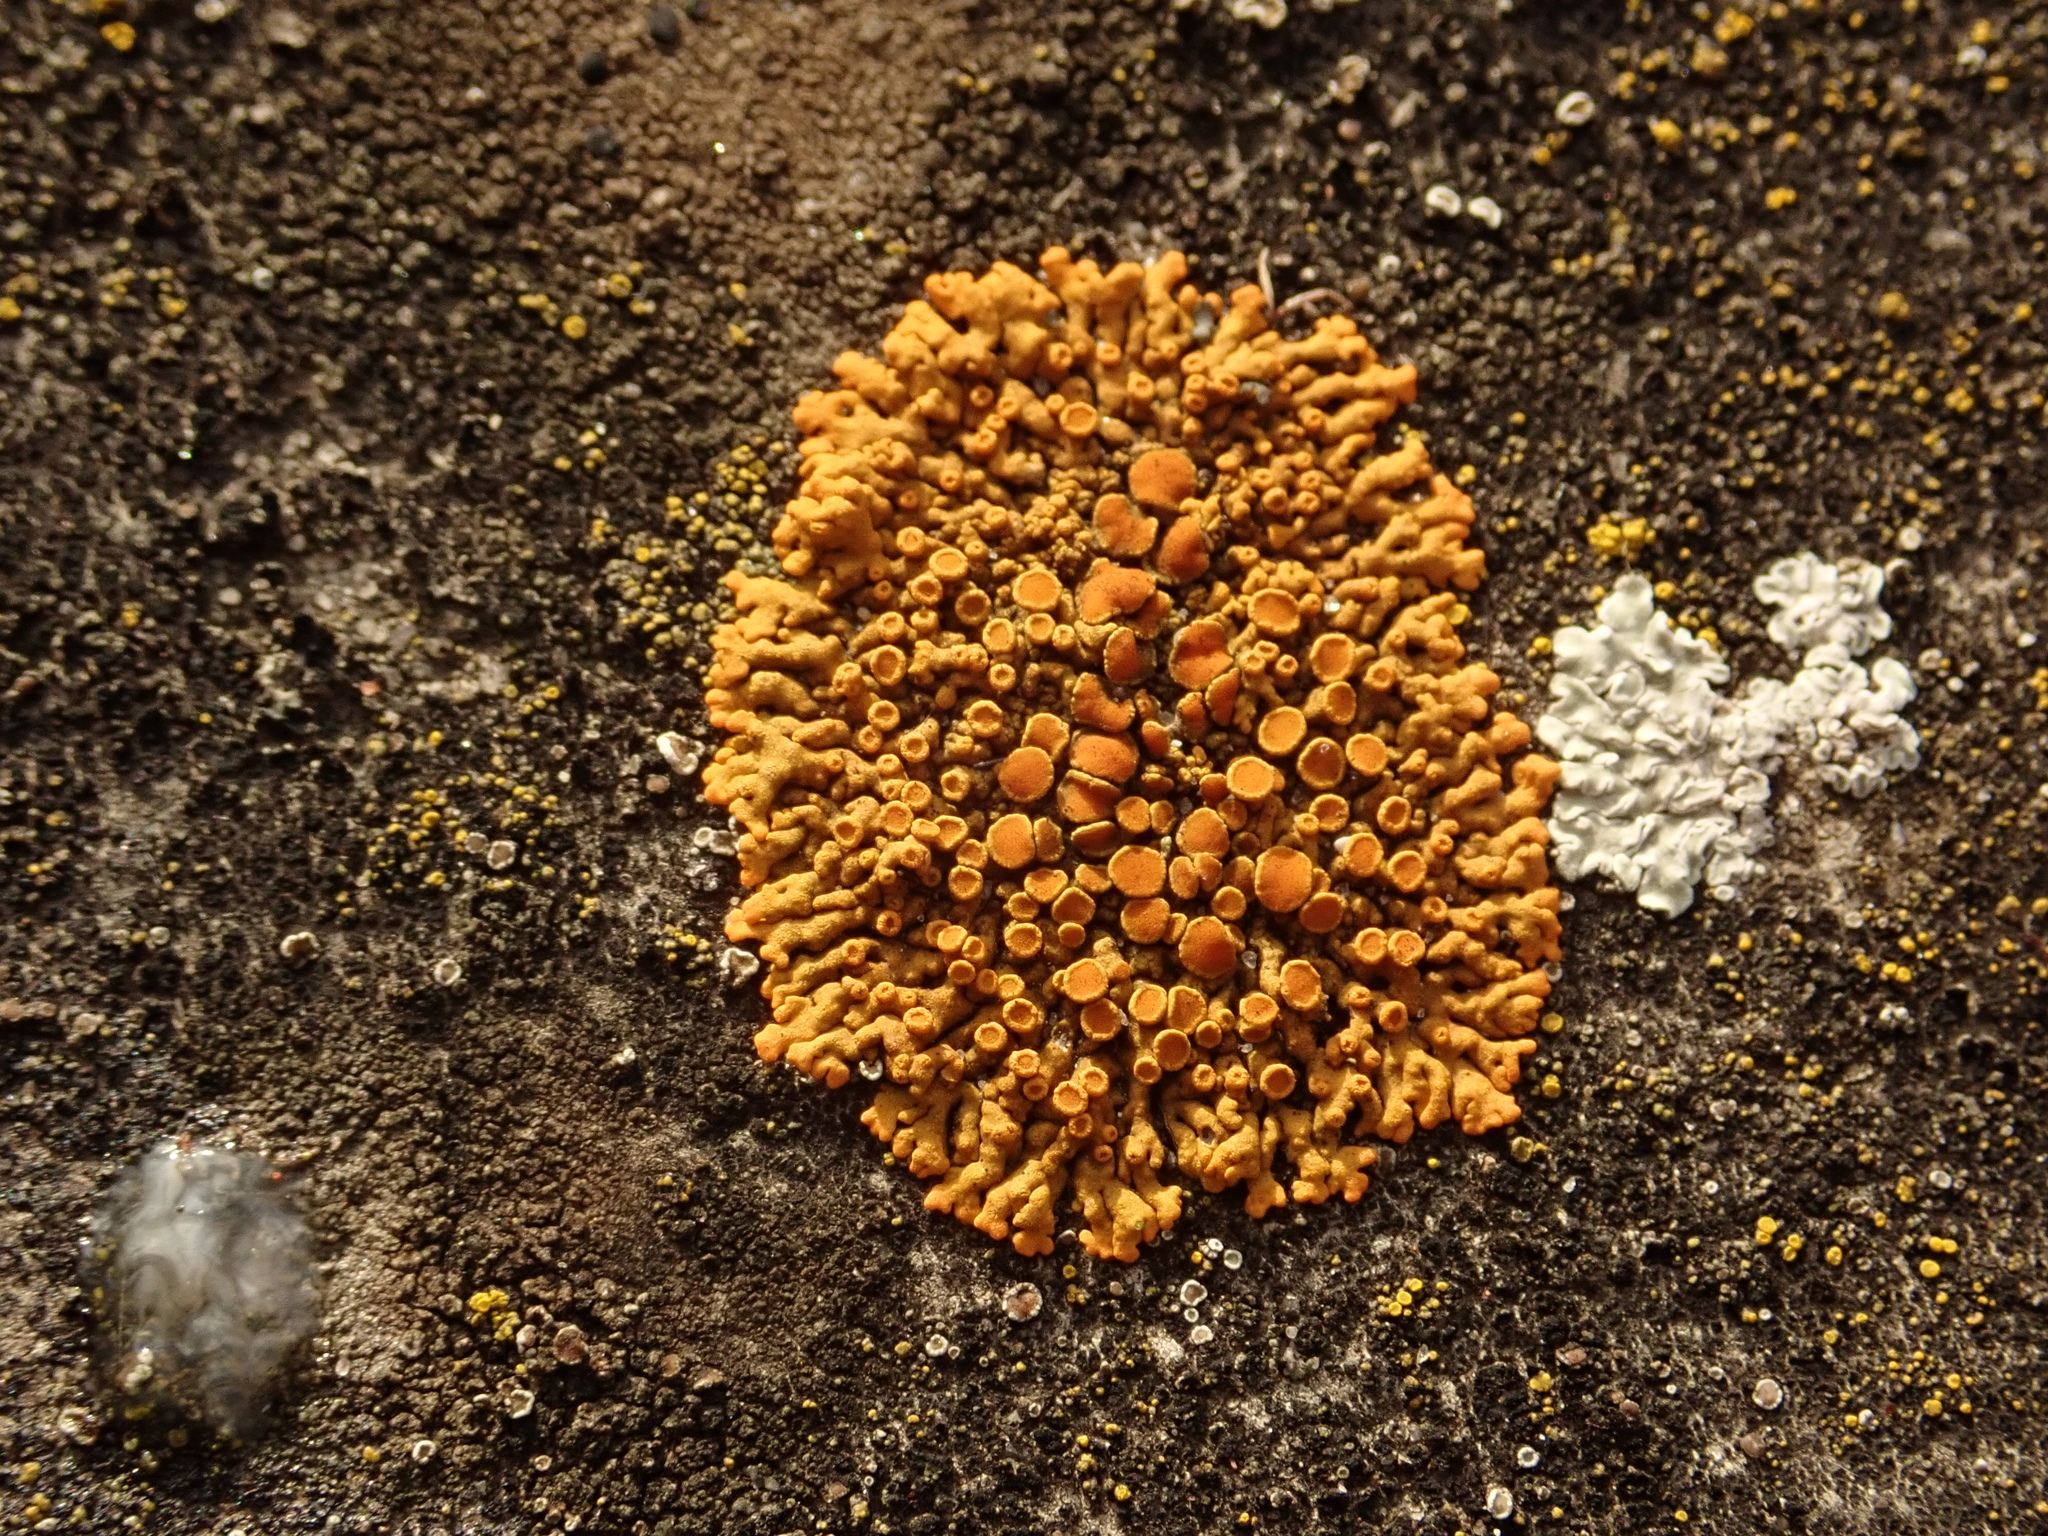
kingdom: Fungi
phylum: Ascomycota
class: Lecanoromycetes
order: Teloschistales
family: Teloschistaceae
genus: Xanthoria
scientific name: Xanthoria elegans
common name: Elegant sunburst lichen
